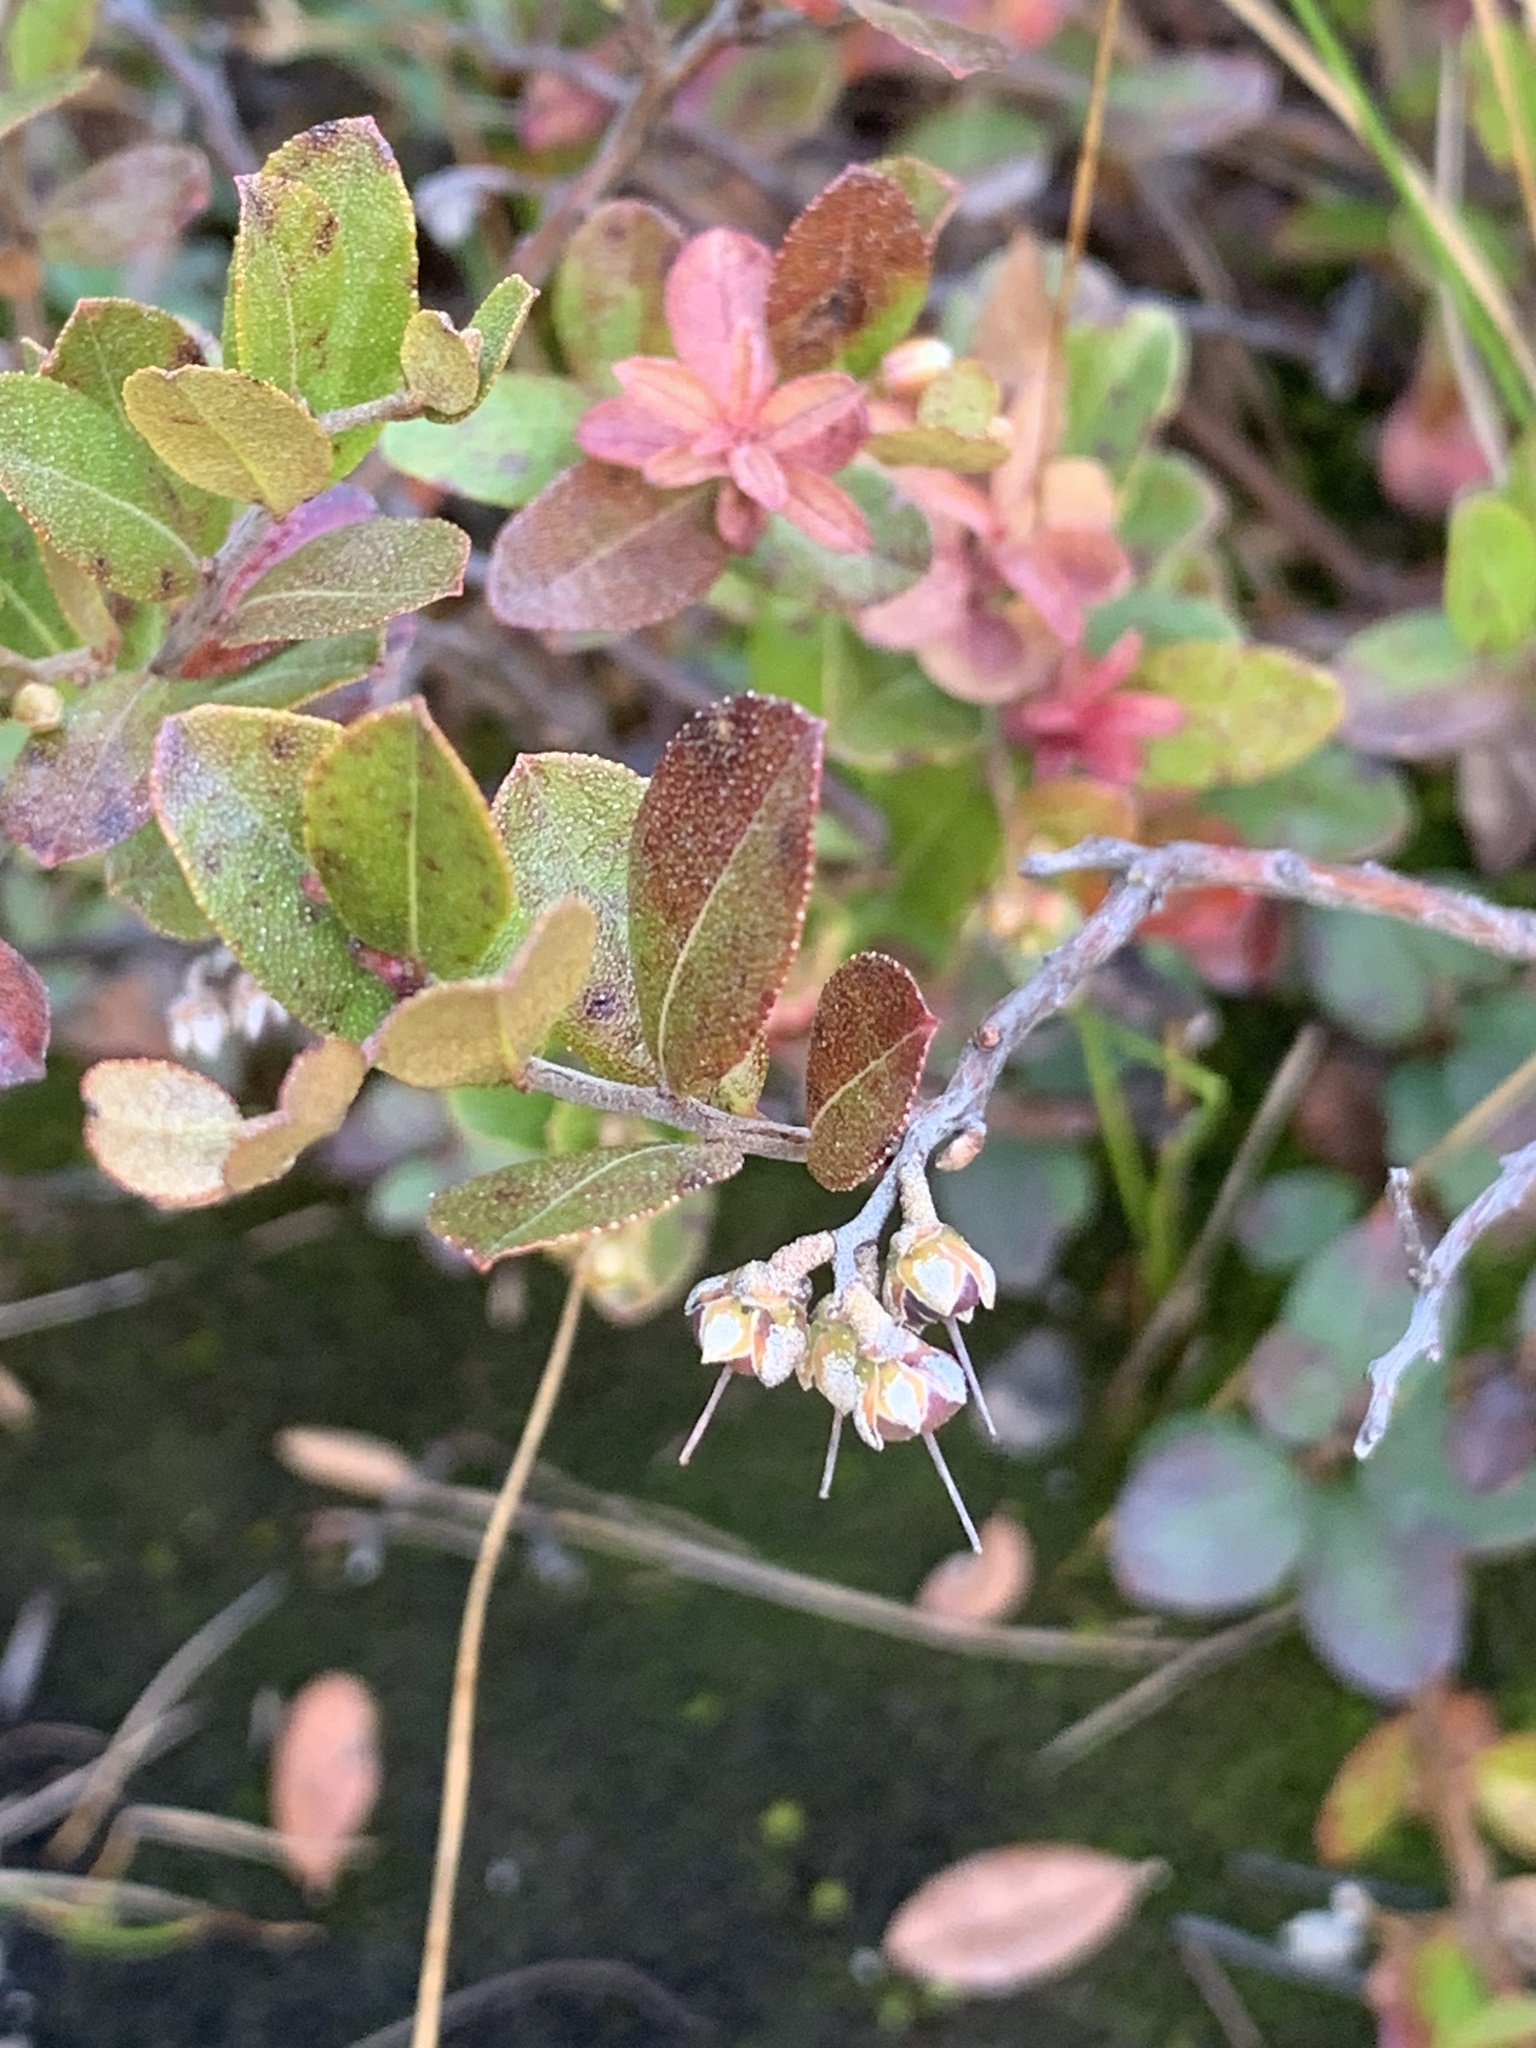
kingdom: Plantae
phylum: Tracheophyta
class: Magnoliopsida
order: Ericales
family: Ericaceae
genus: Chamaedaphne
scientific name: Chamaedaphne calyculata
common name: Leatherleaf
